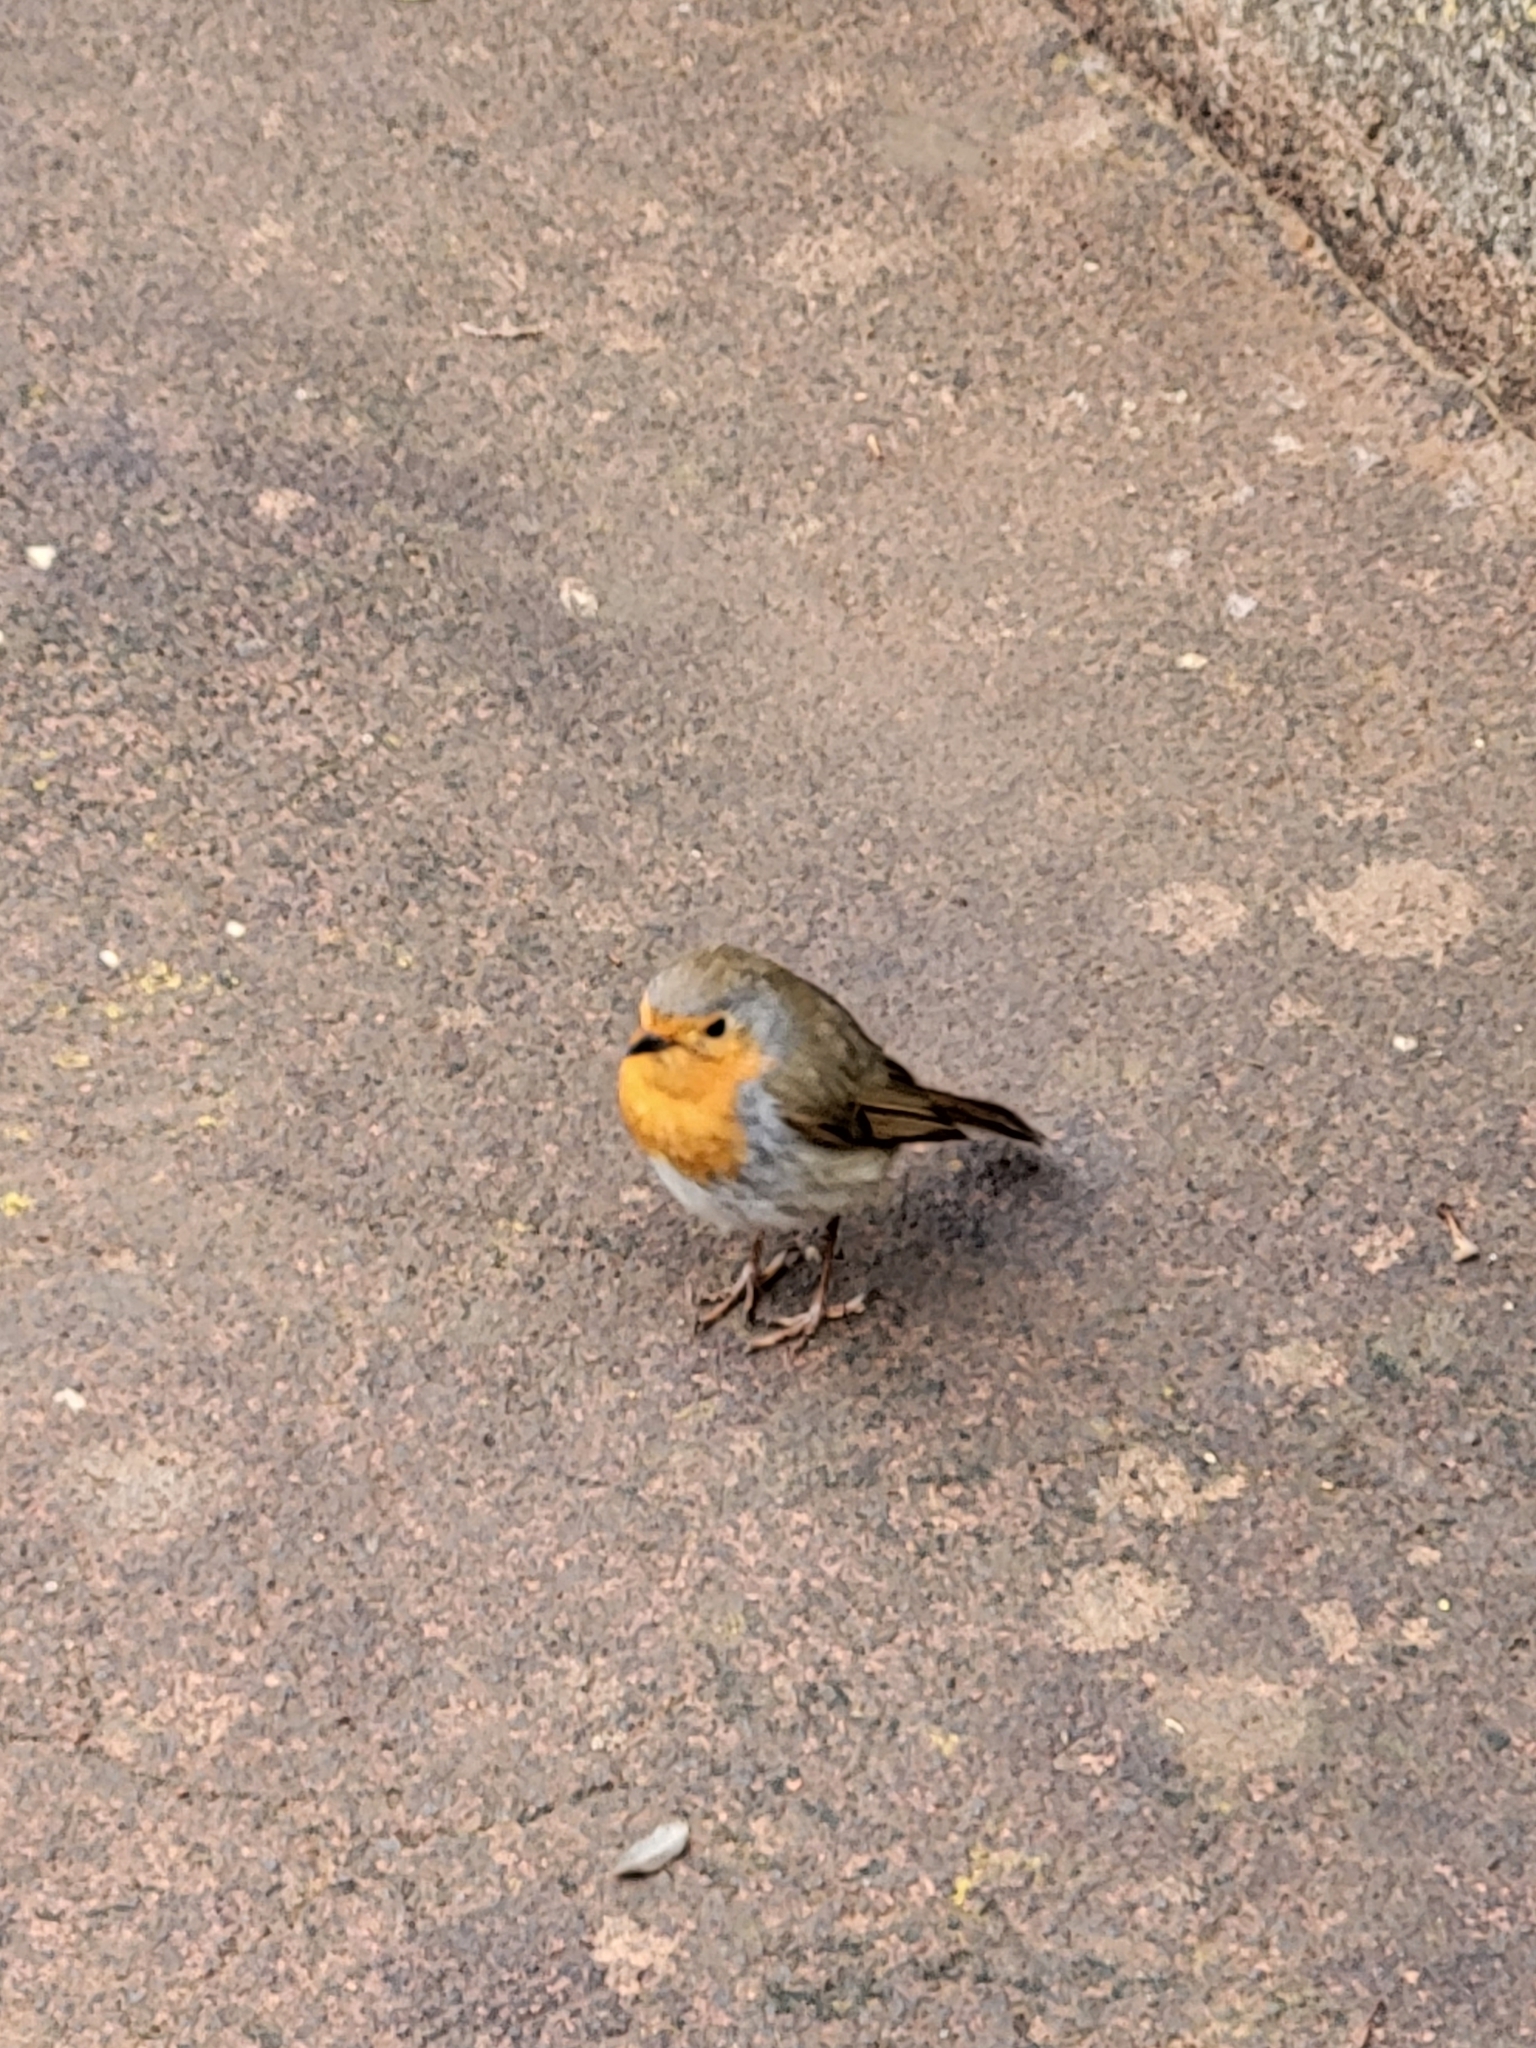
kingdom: Animalia
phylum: Chordata
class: Aves
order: Passeriformes
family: Muscicapidae
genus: Erithacus
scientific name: Erithacus rubecula
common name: European robin
